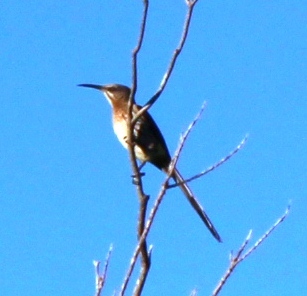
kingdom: Animalia
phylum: Chordata
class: Aves
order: Passeriformes
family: Promeropidae
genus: Promerops
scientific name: Promerops cafer
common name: Cape sugarbird
